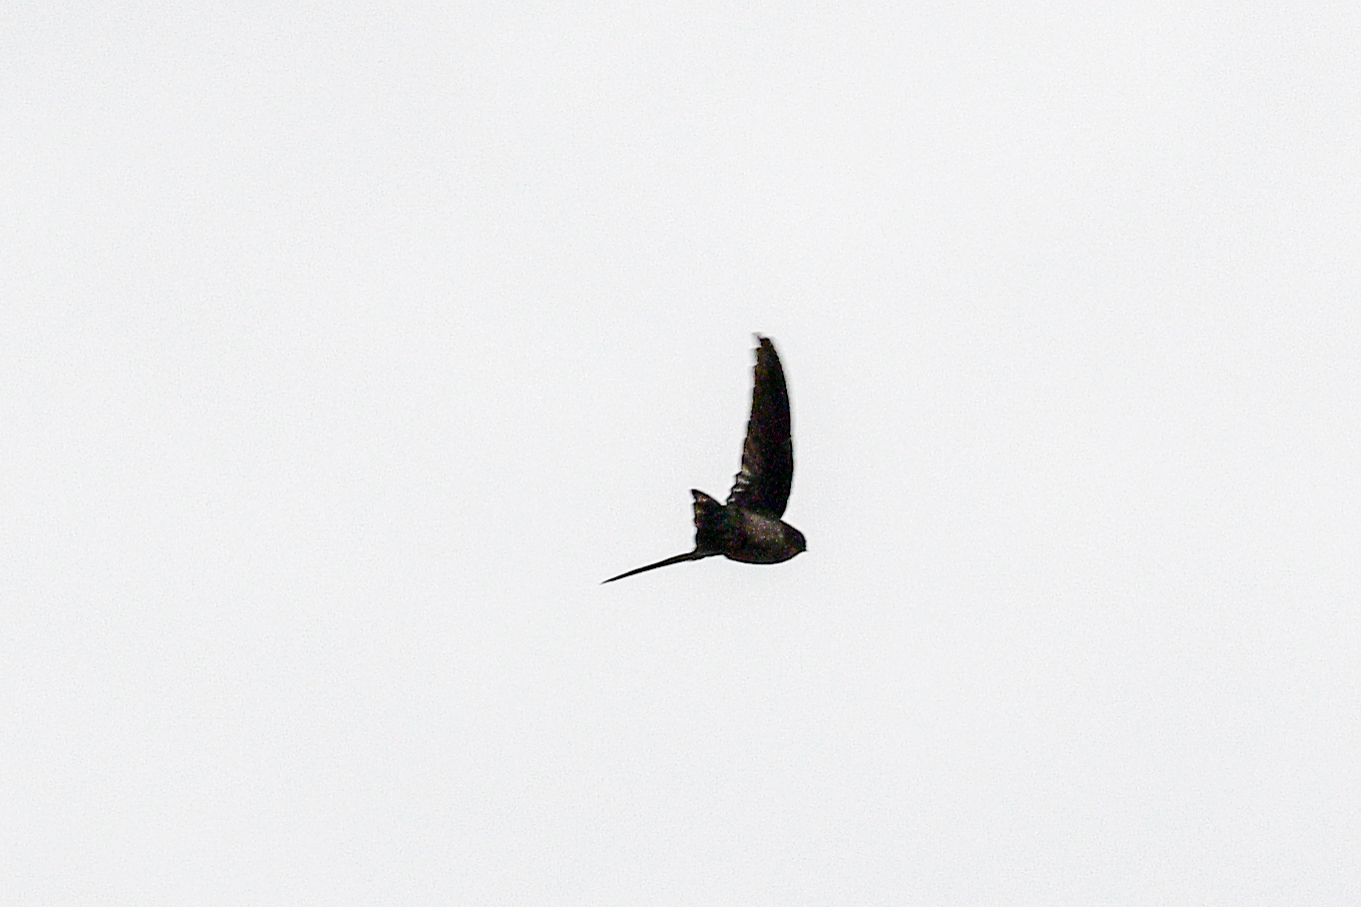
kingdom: Animalia
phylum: Chordata
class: Aves
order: Apodiformes
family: Apodidae
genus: Aerodramus
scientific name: Aerodramus
